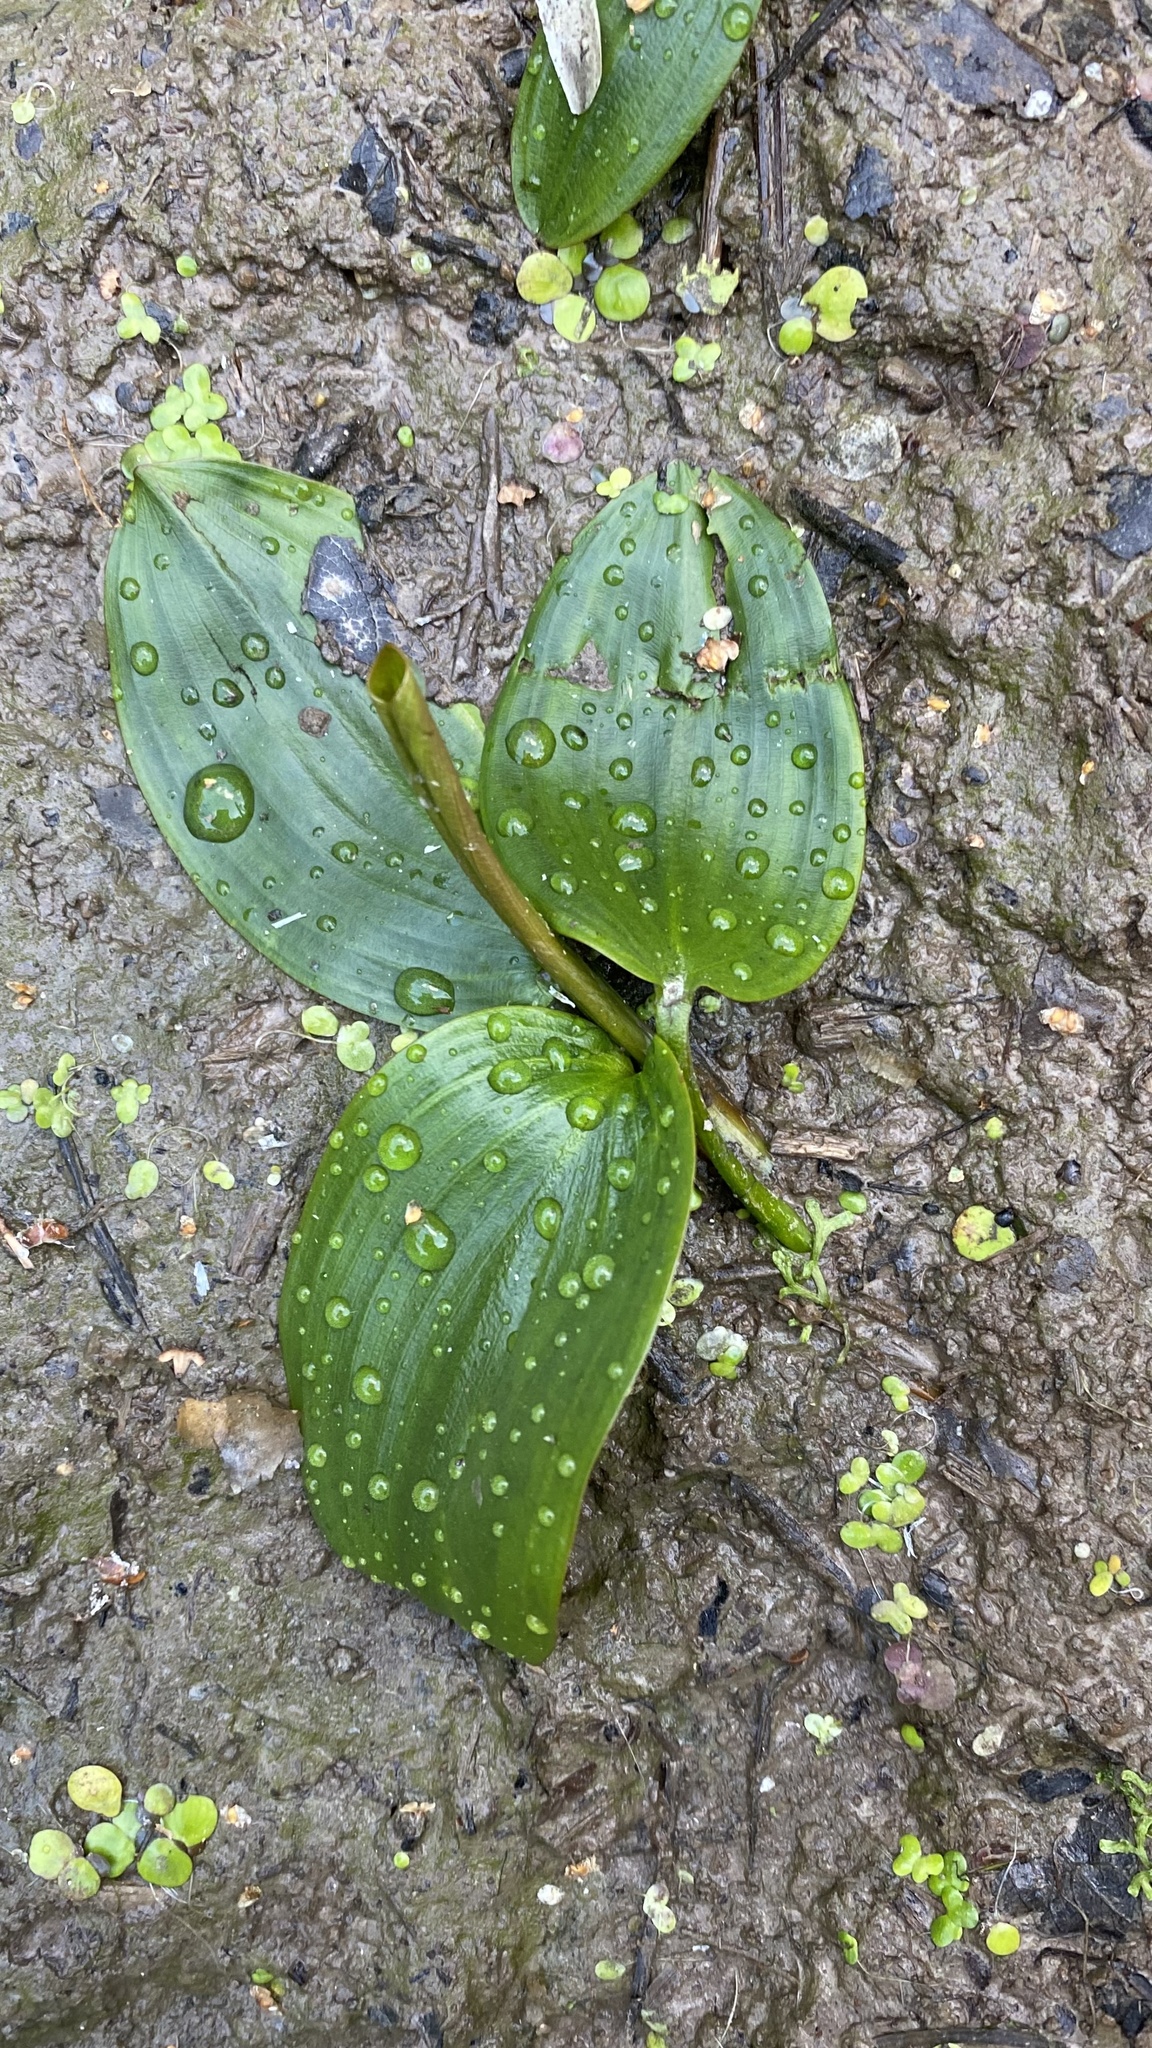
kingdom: Plantae
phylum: Tracheophyta
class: Liliopsida
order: Alismatales
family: Potamogetonaceae
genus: Potamogeton
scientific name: Potamogeton natans
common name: Broad-leaved pondweed
